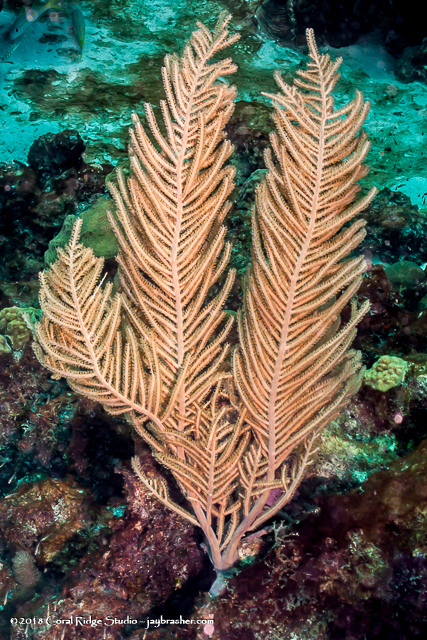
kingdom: Animalia
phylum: Cnidaria
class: Anthozoa
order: Malacalcyonacea
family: Gorgoniidae
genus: Antillogorgia
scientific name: Antillogorgia rigida
